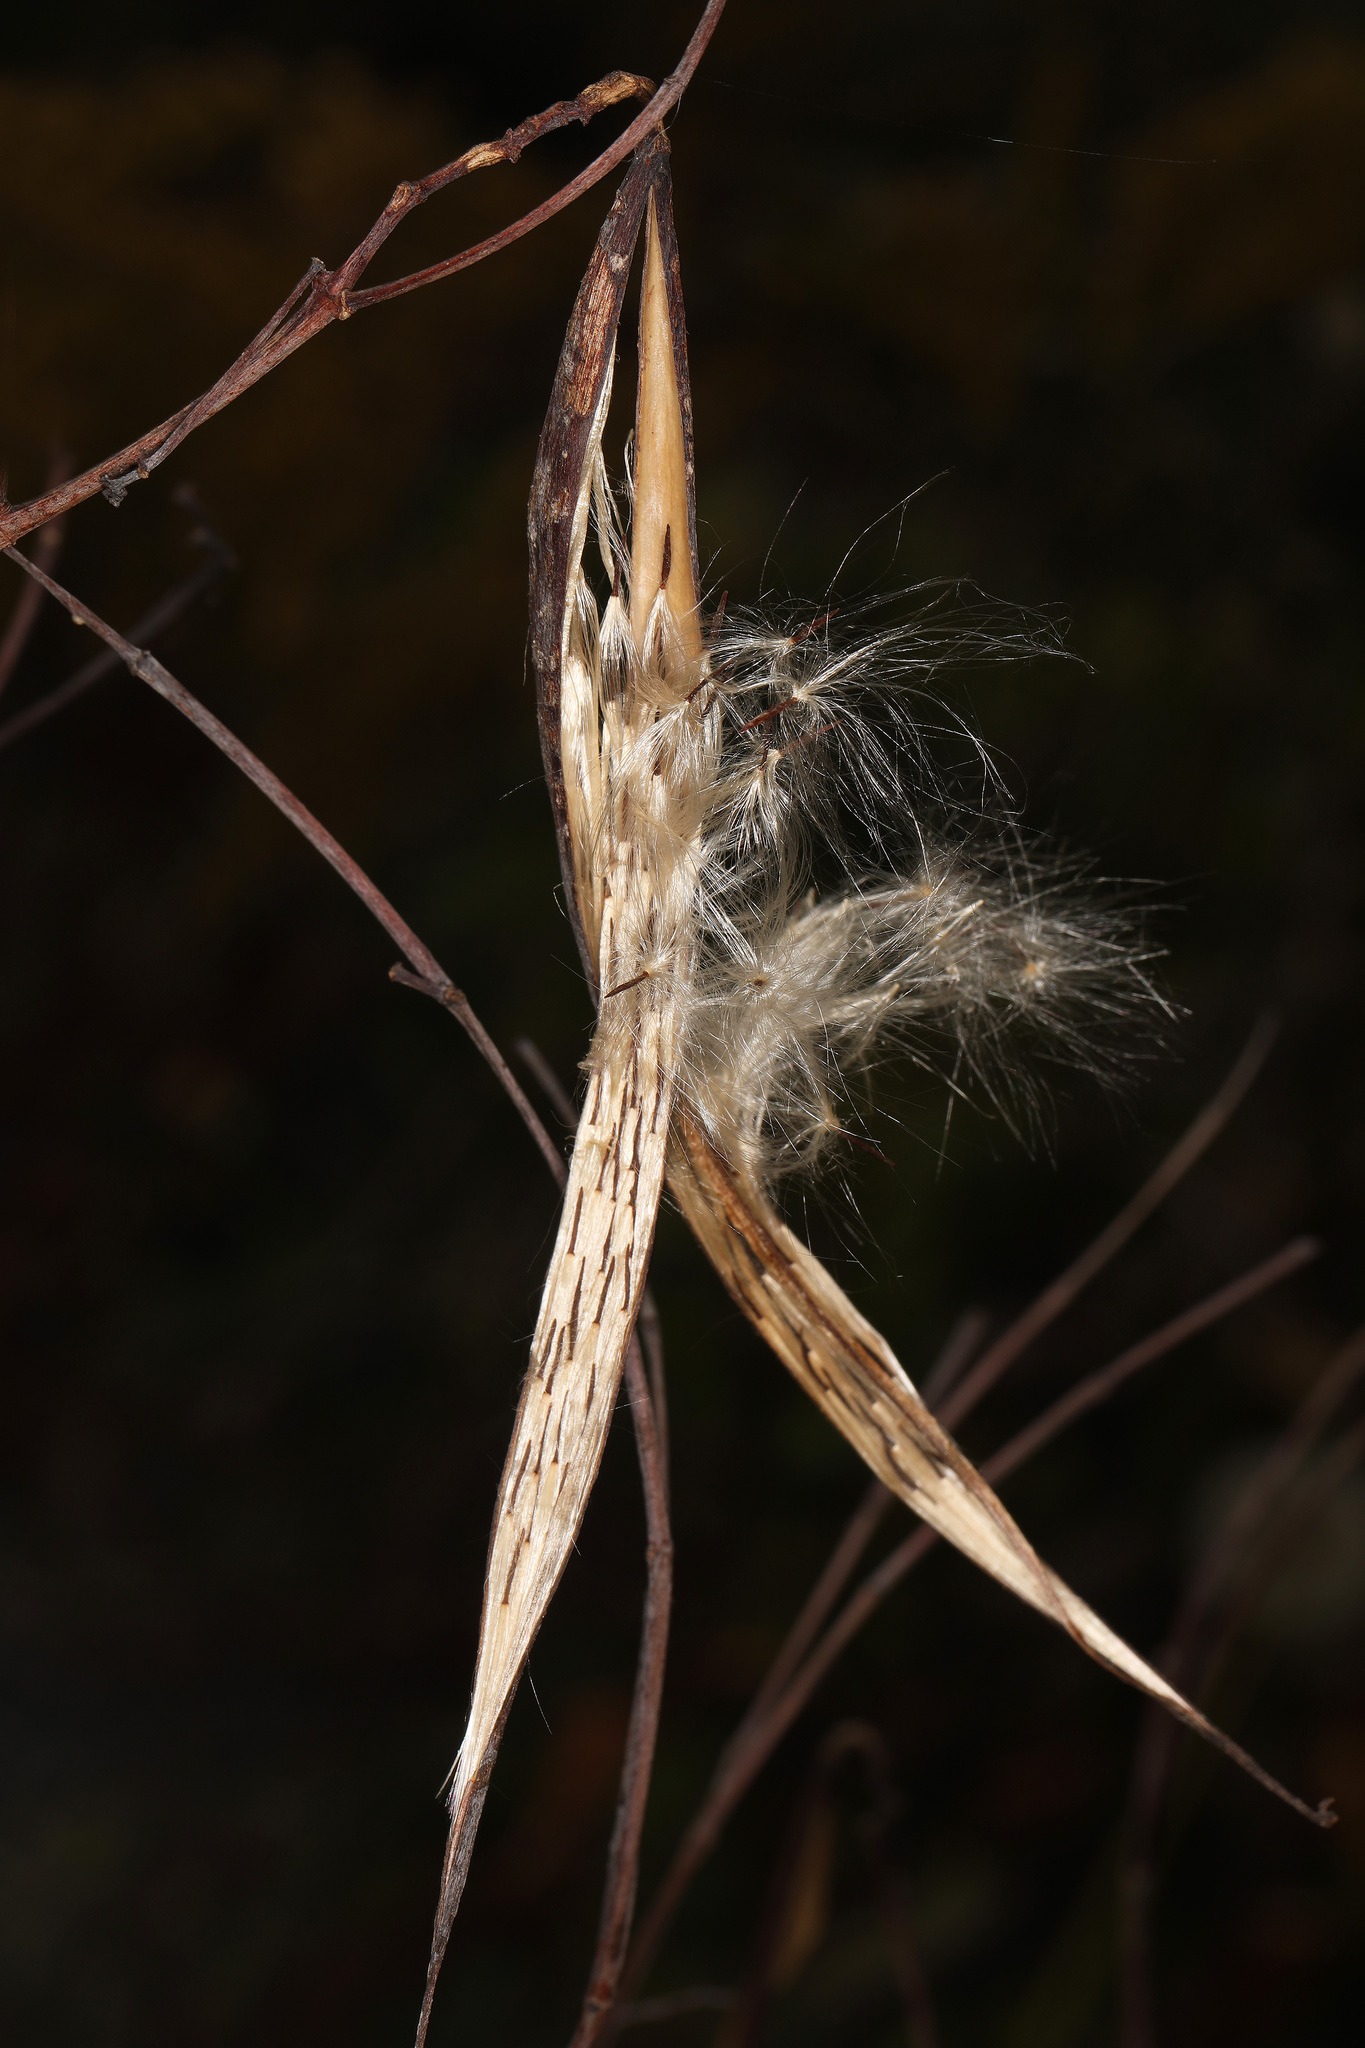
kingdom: Plantae
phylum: Tracheophyta
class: Magnoliopsida
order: Gentianales
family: Apocynaceae
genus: Apocynum
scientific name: Apocynum cannabinum
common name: Hemp dogbane
